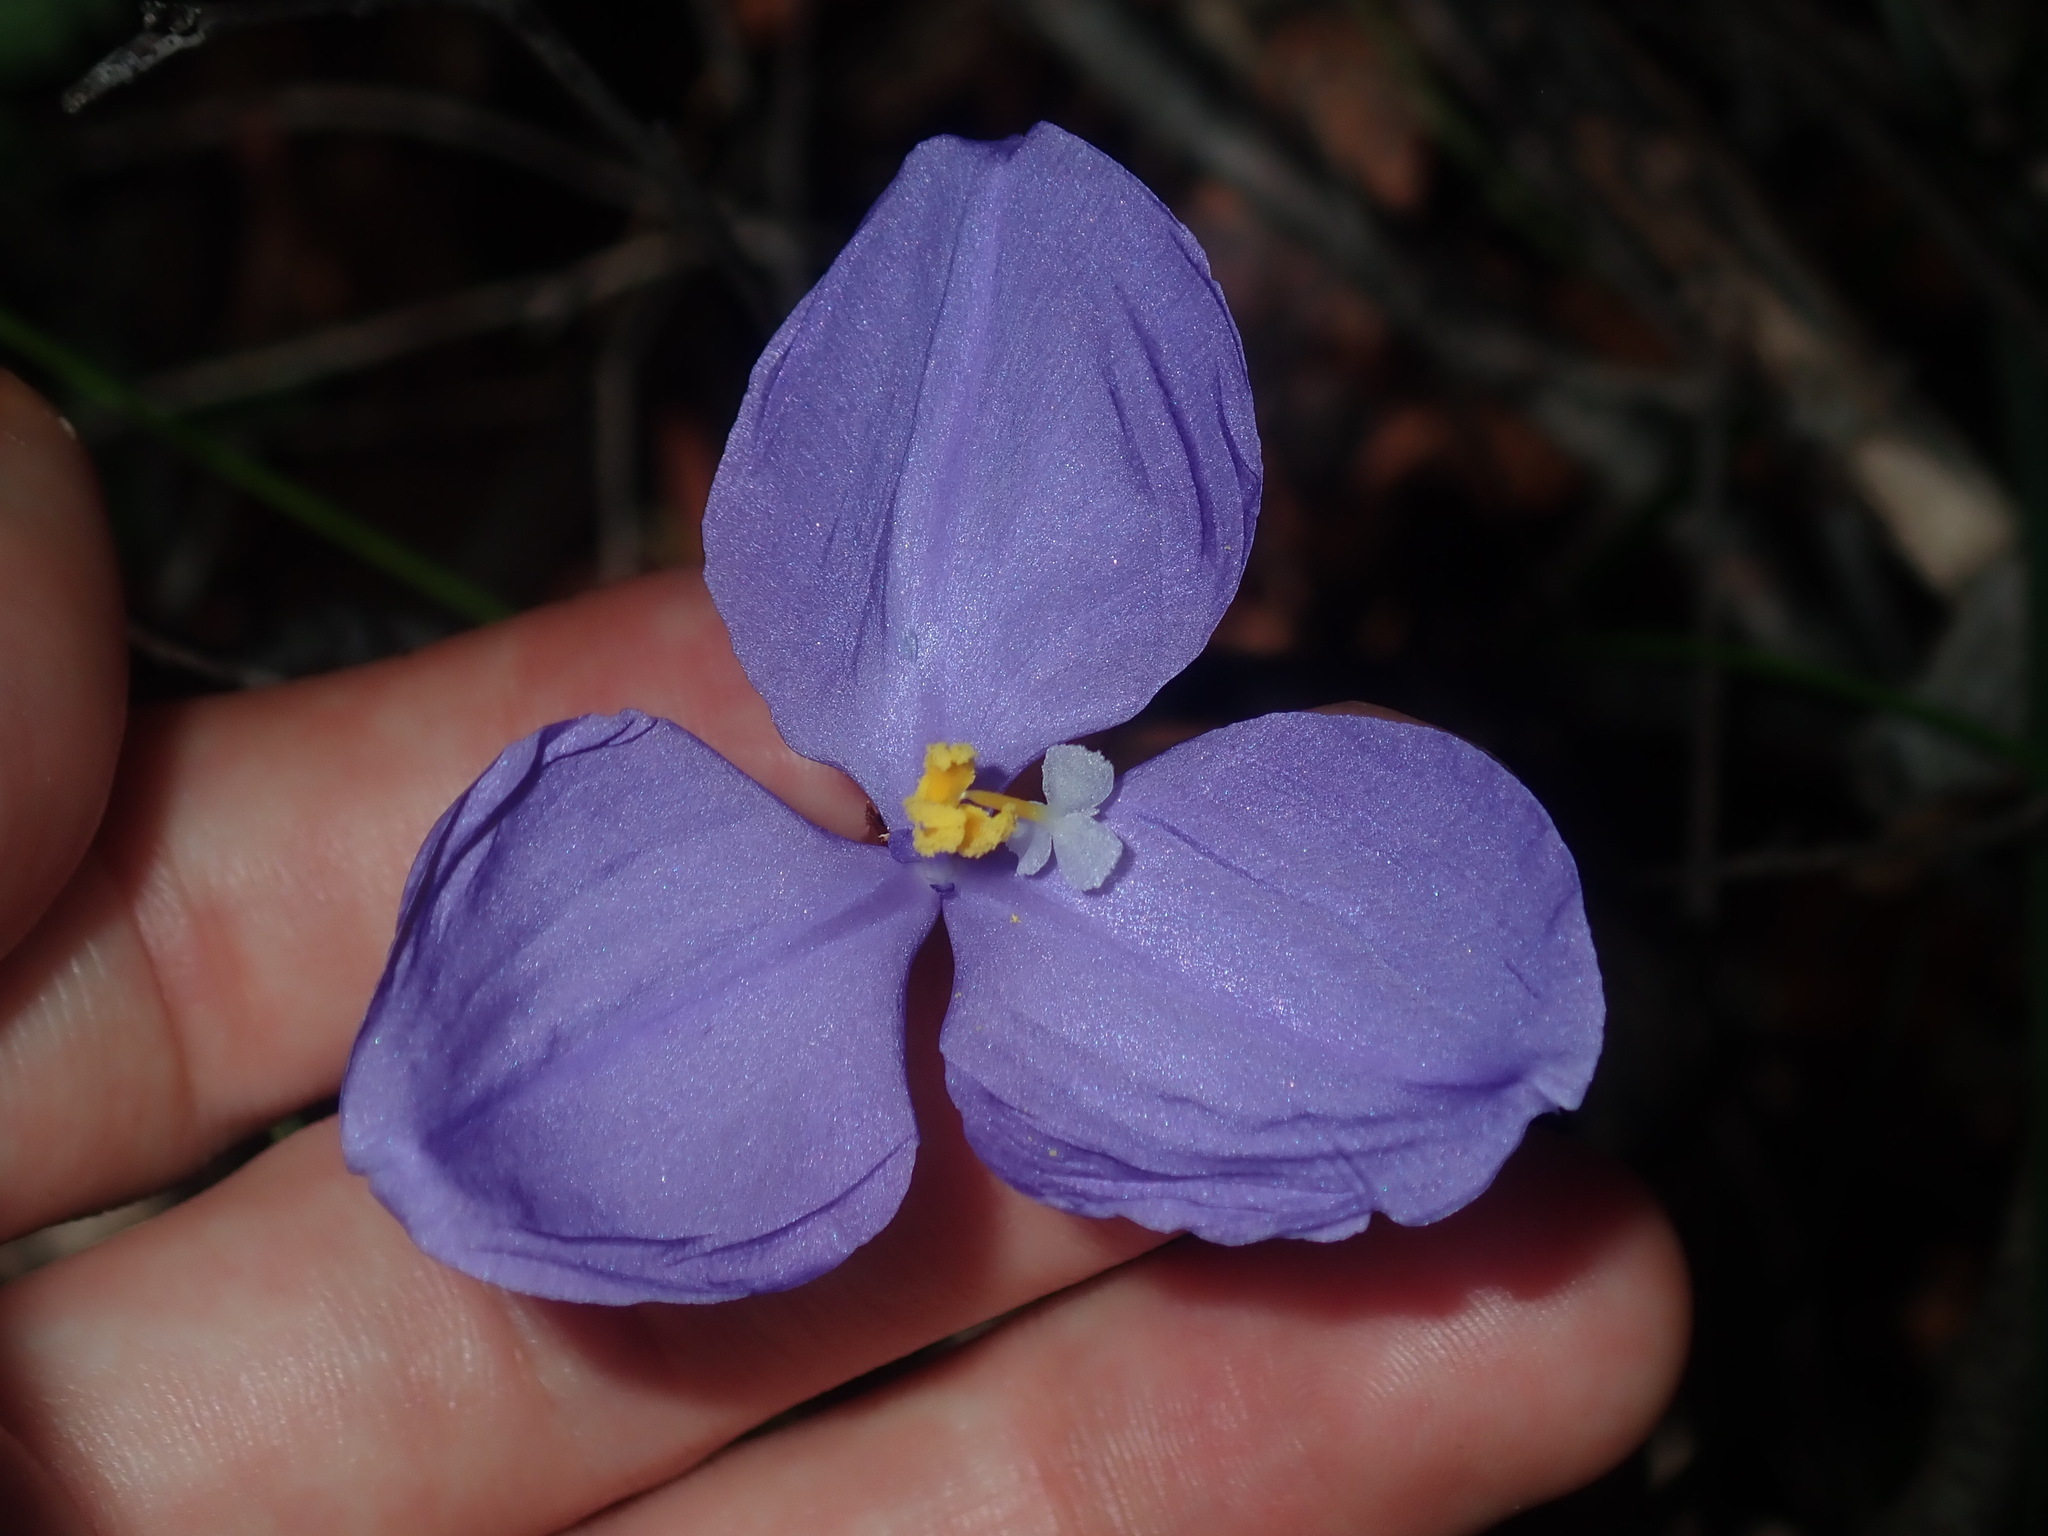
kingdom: Plantae
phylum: Tracheophyta
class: Liliopsida
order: Asparagales
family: Iridaceae
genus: Patersonia
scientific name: Patersonia sericea
